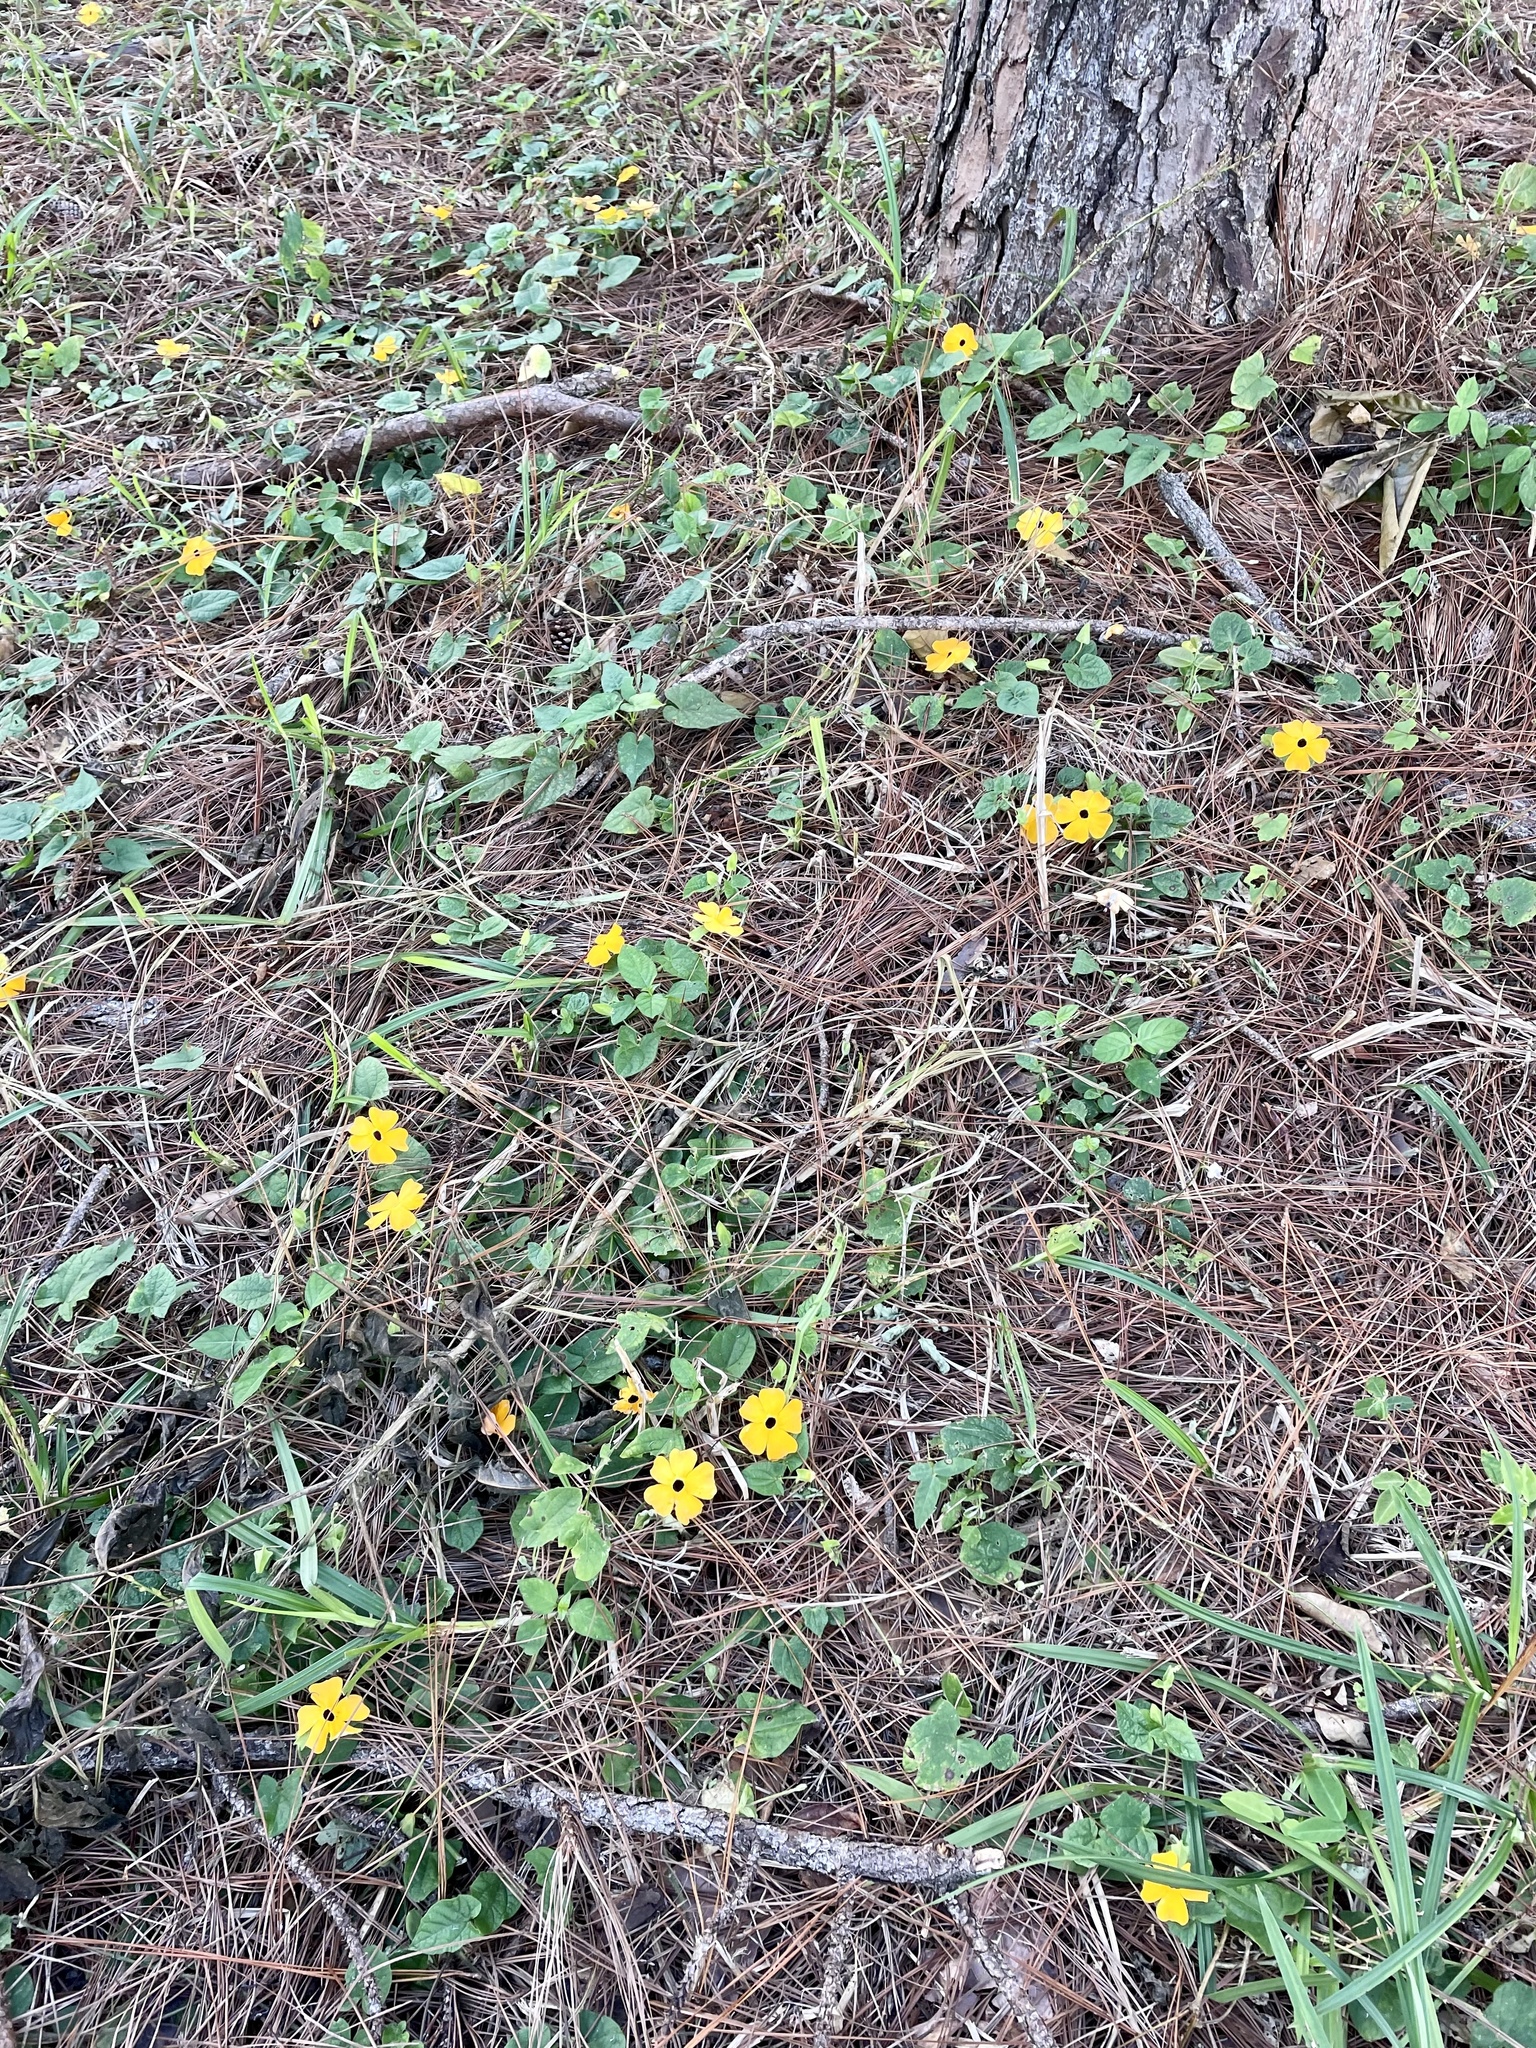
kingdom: Plantae
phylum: Tracheophyta
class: Magnoliopsida
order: Lamiales
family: Acanthaceae
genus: Thunbergia
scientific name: Thunbergia alata
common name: Blackeyed susan vine
